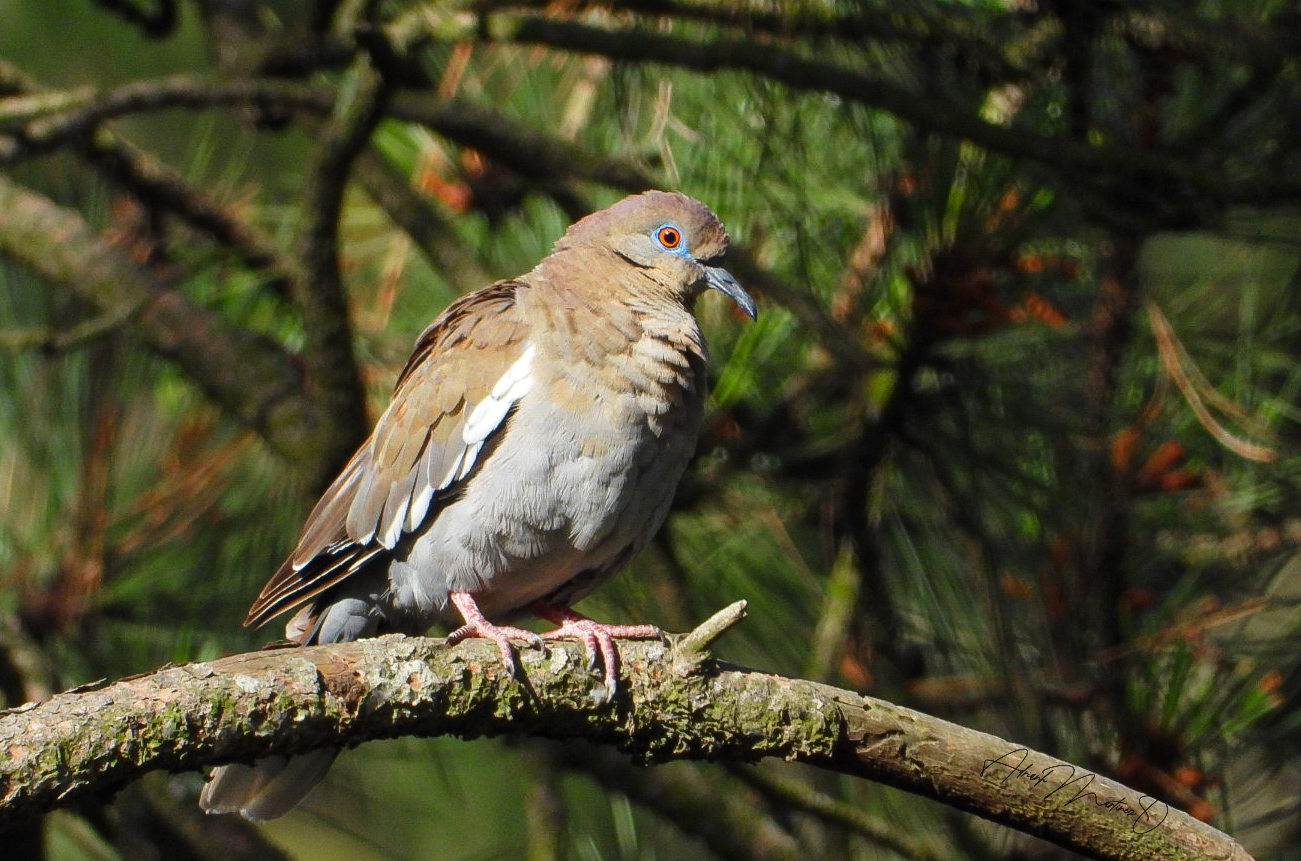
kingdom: Animalia
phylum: Chordata
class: Aves
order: Columbiformes
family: Columbidae
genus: Zenaida
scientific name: Zenaida asiatica
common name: White-winged dove
